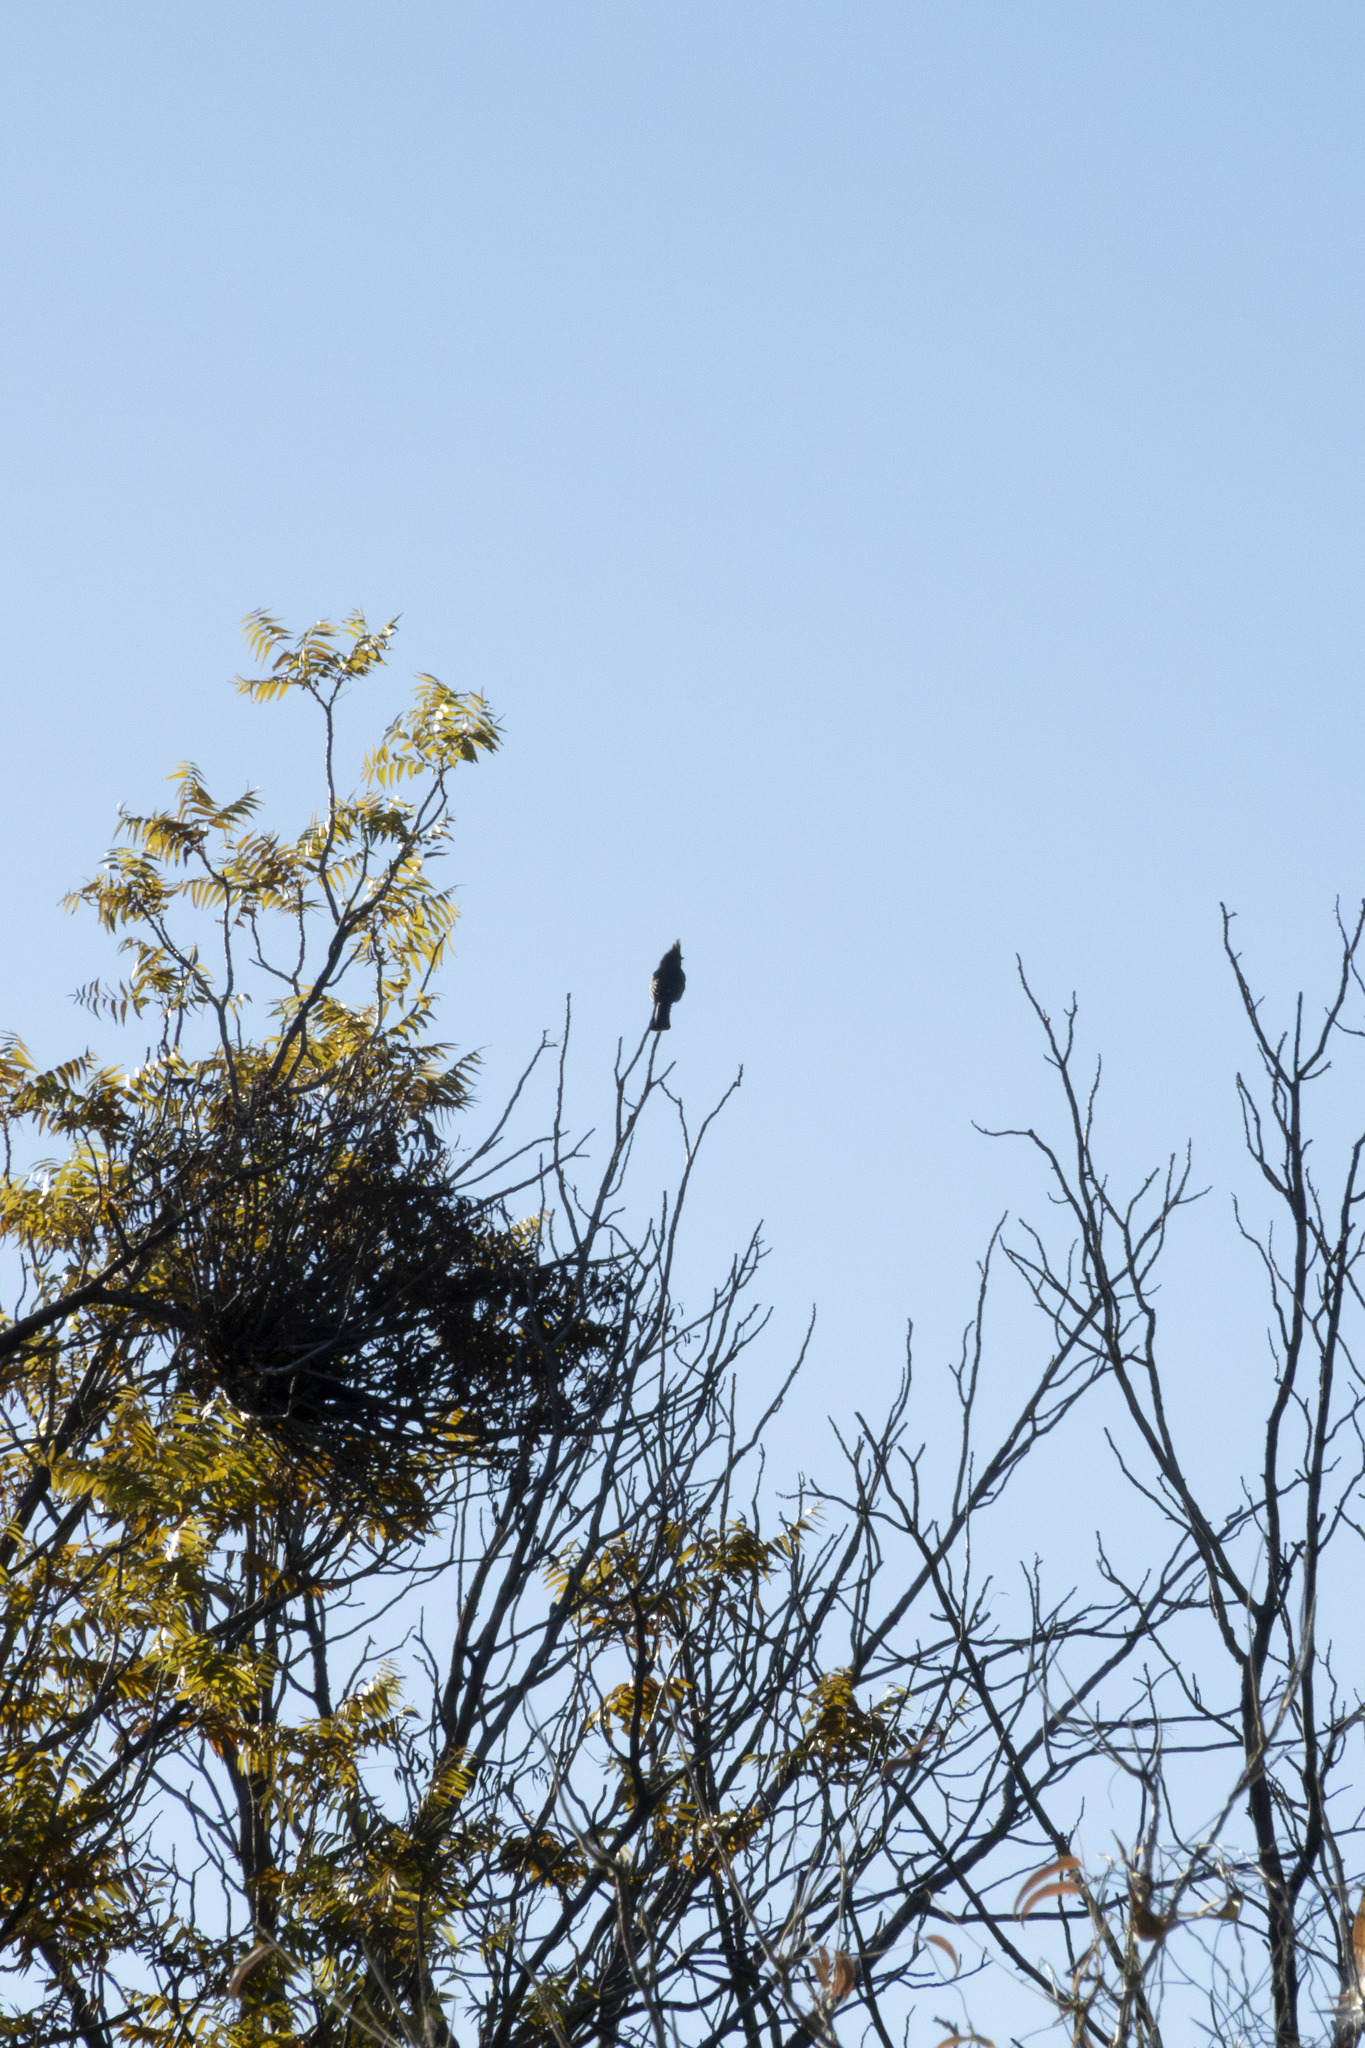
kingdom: Animalia
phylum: Chordata
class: Aves
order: Passeriformes
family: Ptilogonatidae
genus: Phainopepla
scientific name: Phainopepla nitens
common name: Phainopepla
